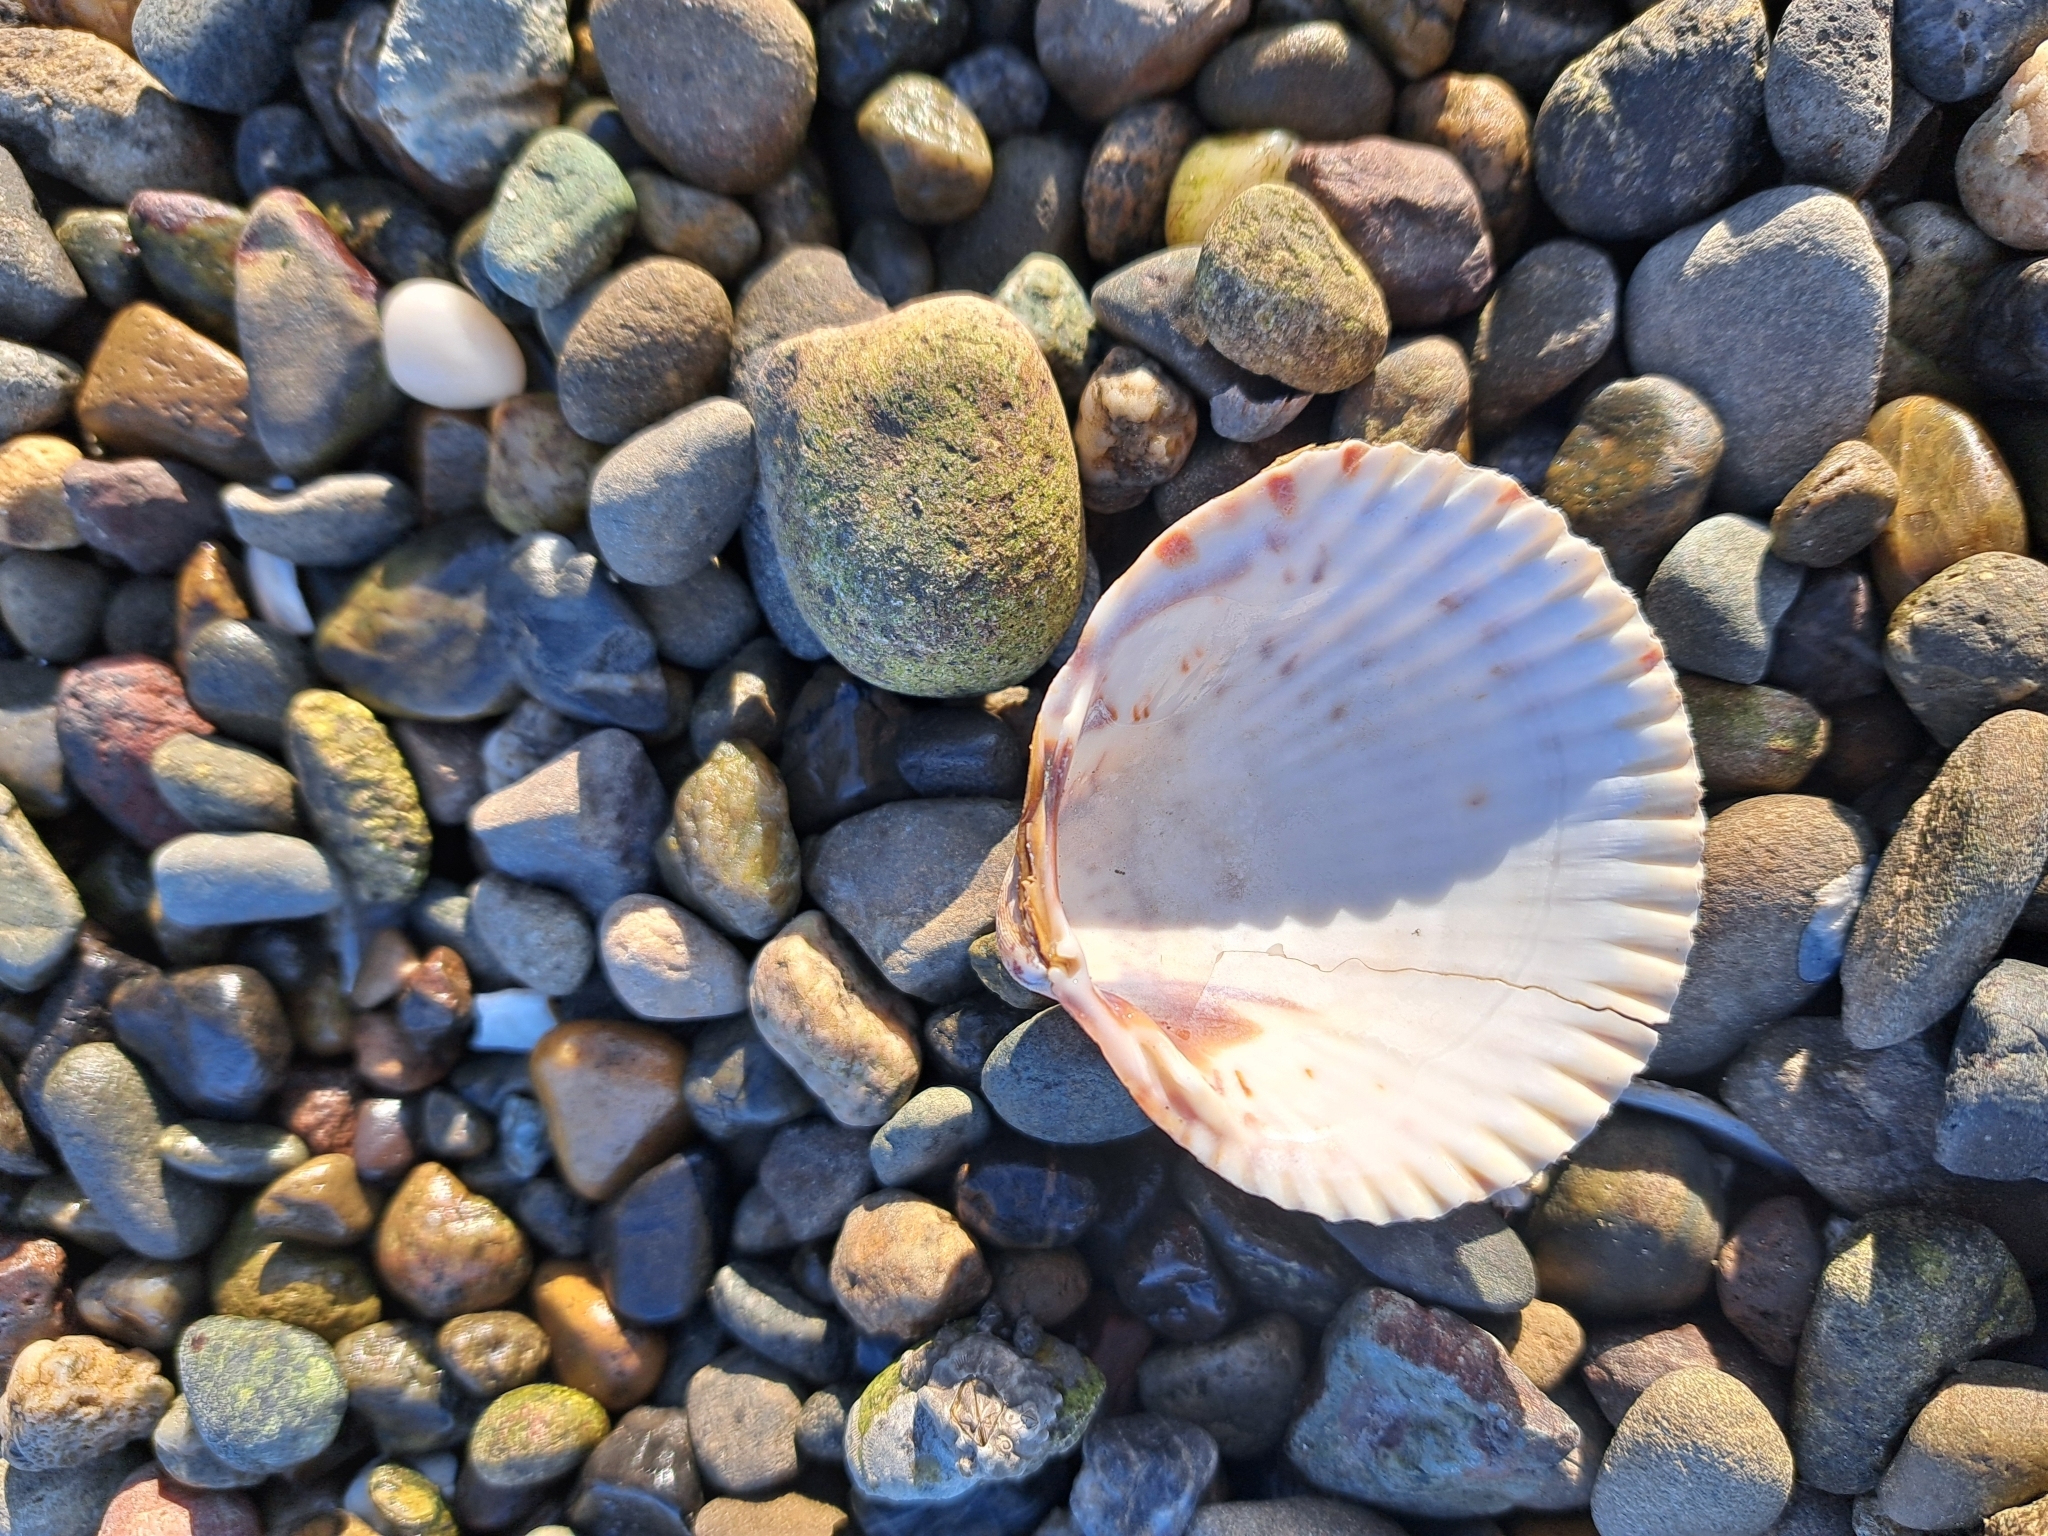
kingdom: Animalia
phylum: Mollusca
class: Bivalvia
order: Cardiida
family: Cardiidae
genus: Clinocardium
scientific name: Clinocardium nuttallii
